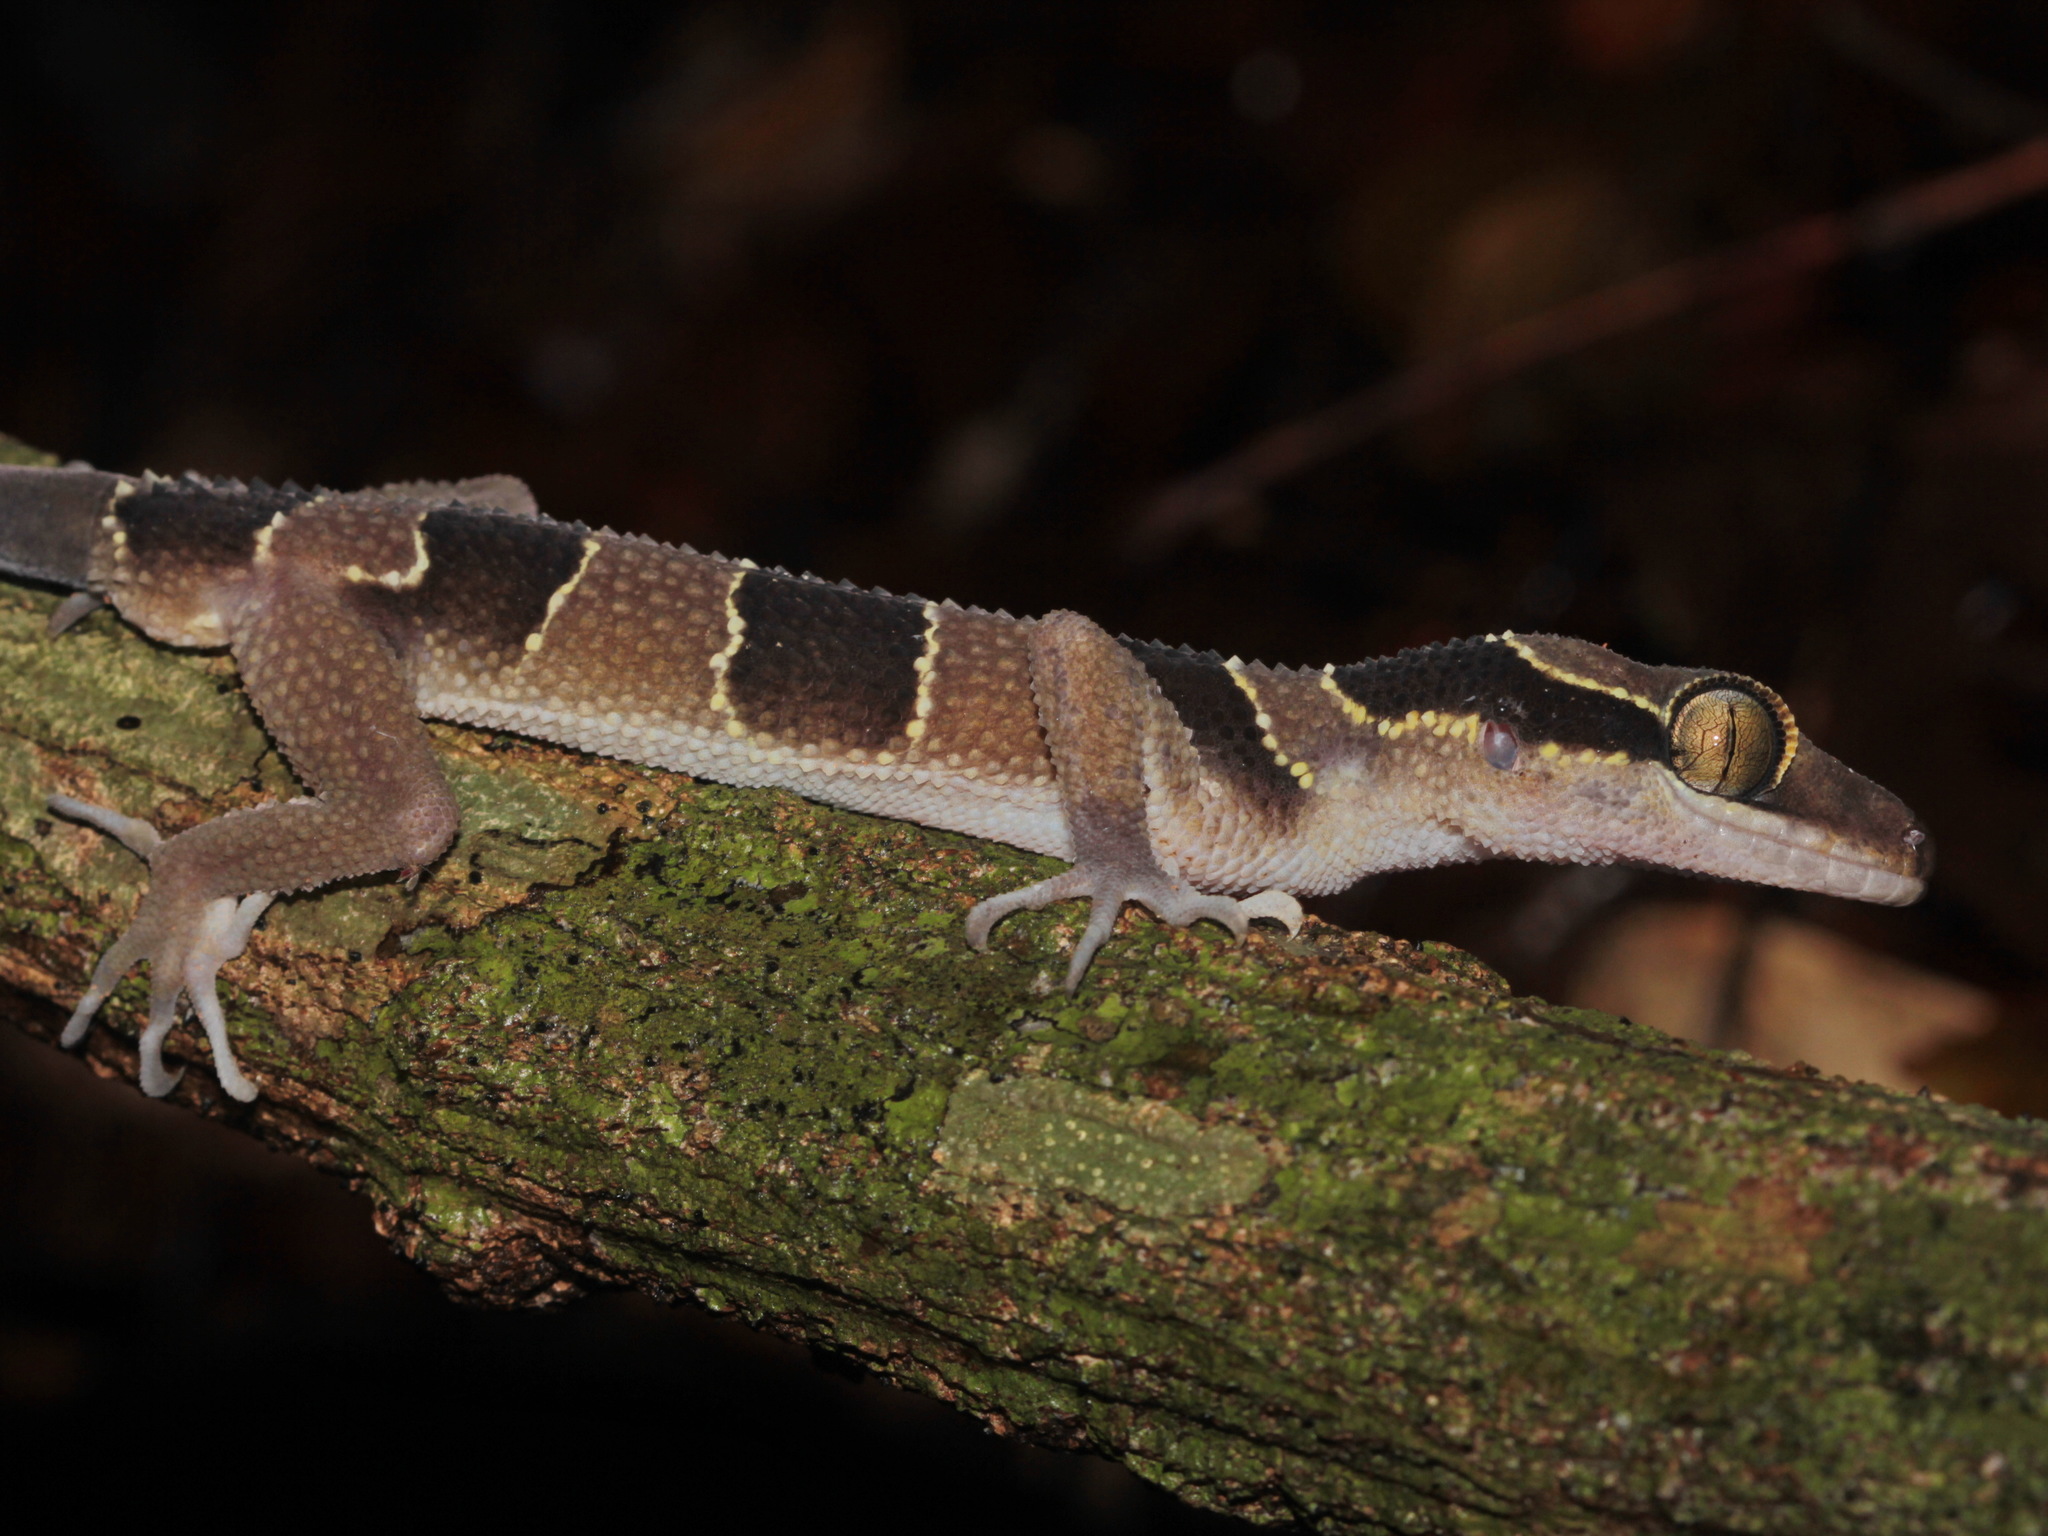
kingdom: Animalia
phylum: Chordata
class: Squamata
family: Gekkonidae
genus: Cyrtodactylus
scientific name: Cyrtodactylus macrotuberculatus
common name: Large tubercled bent-toed gecko
